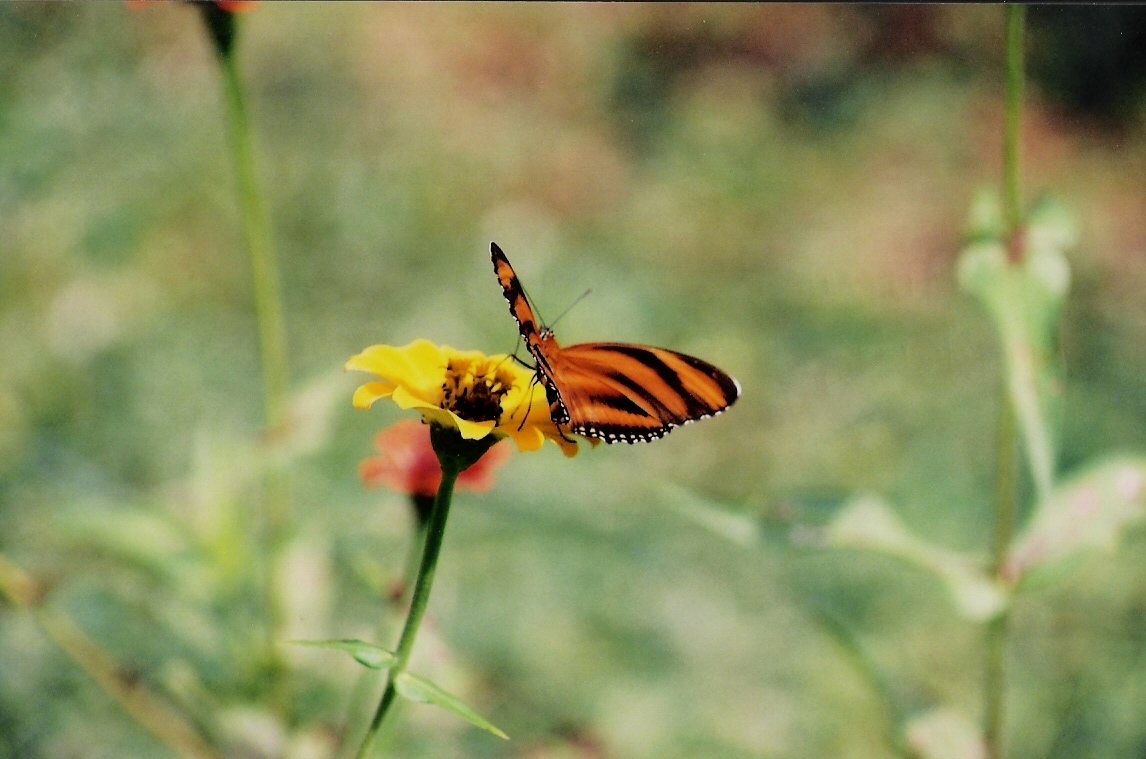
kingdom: Animalia
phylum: Arthropoda
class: Insecta
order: Lepidoptera
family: Nymphalidae
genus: Dryadula
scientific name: Dryadula phaetusa
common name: Banded orange heliconian
